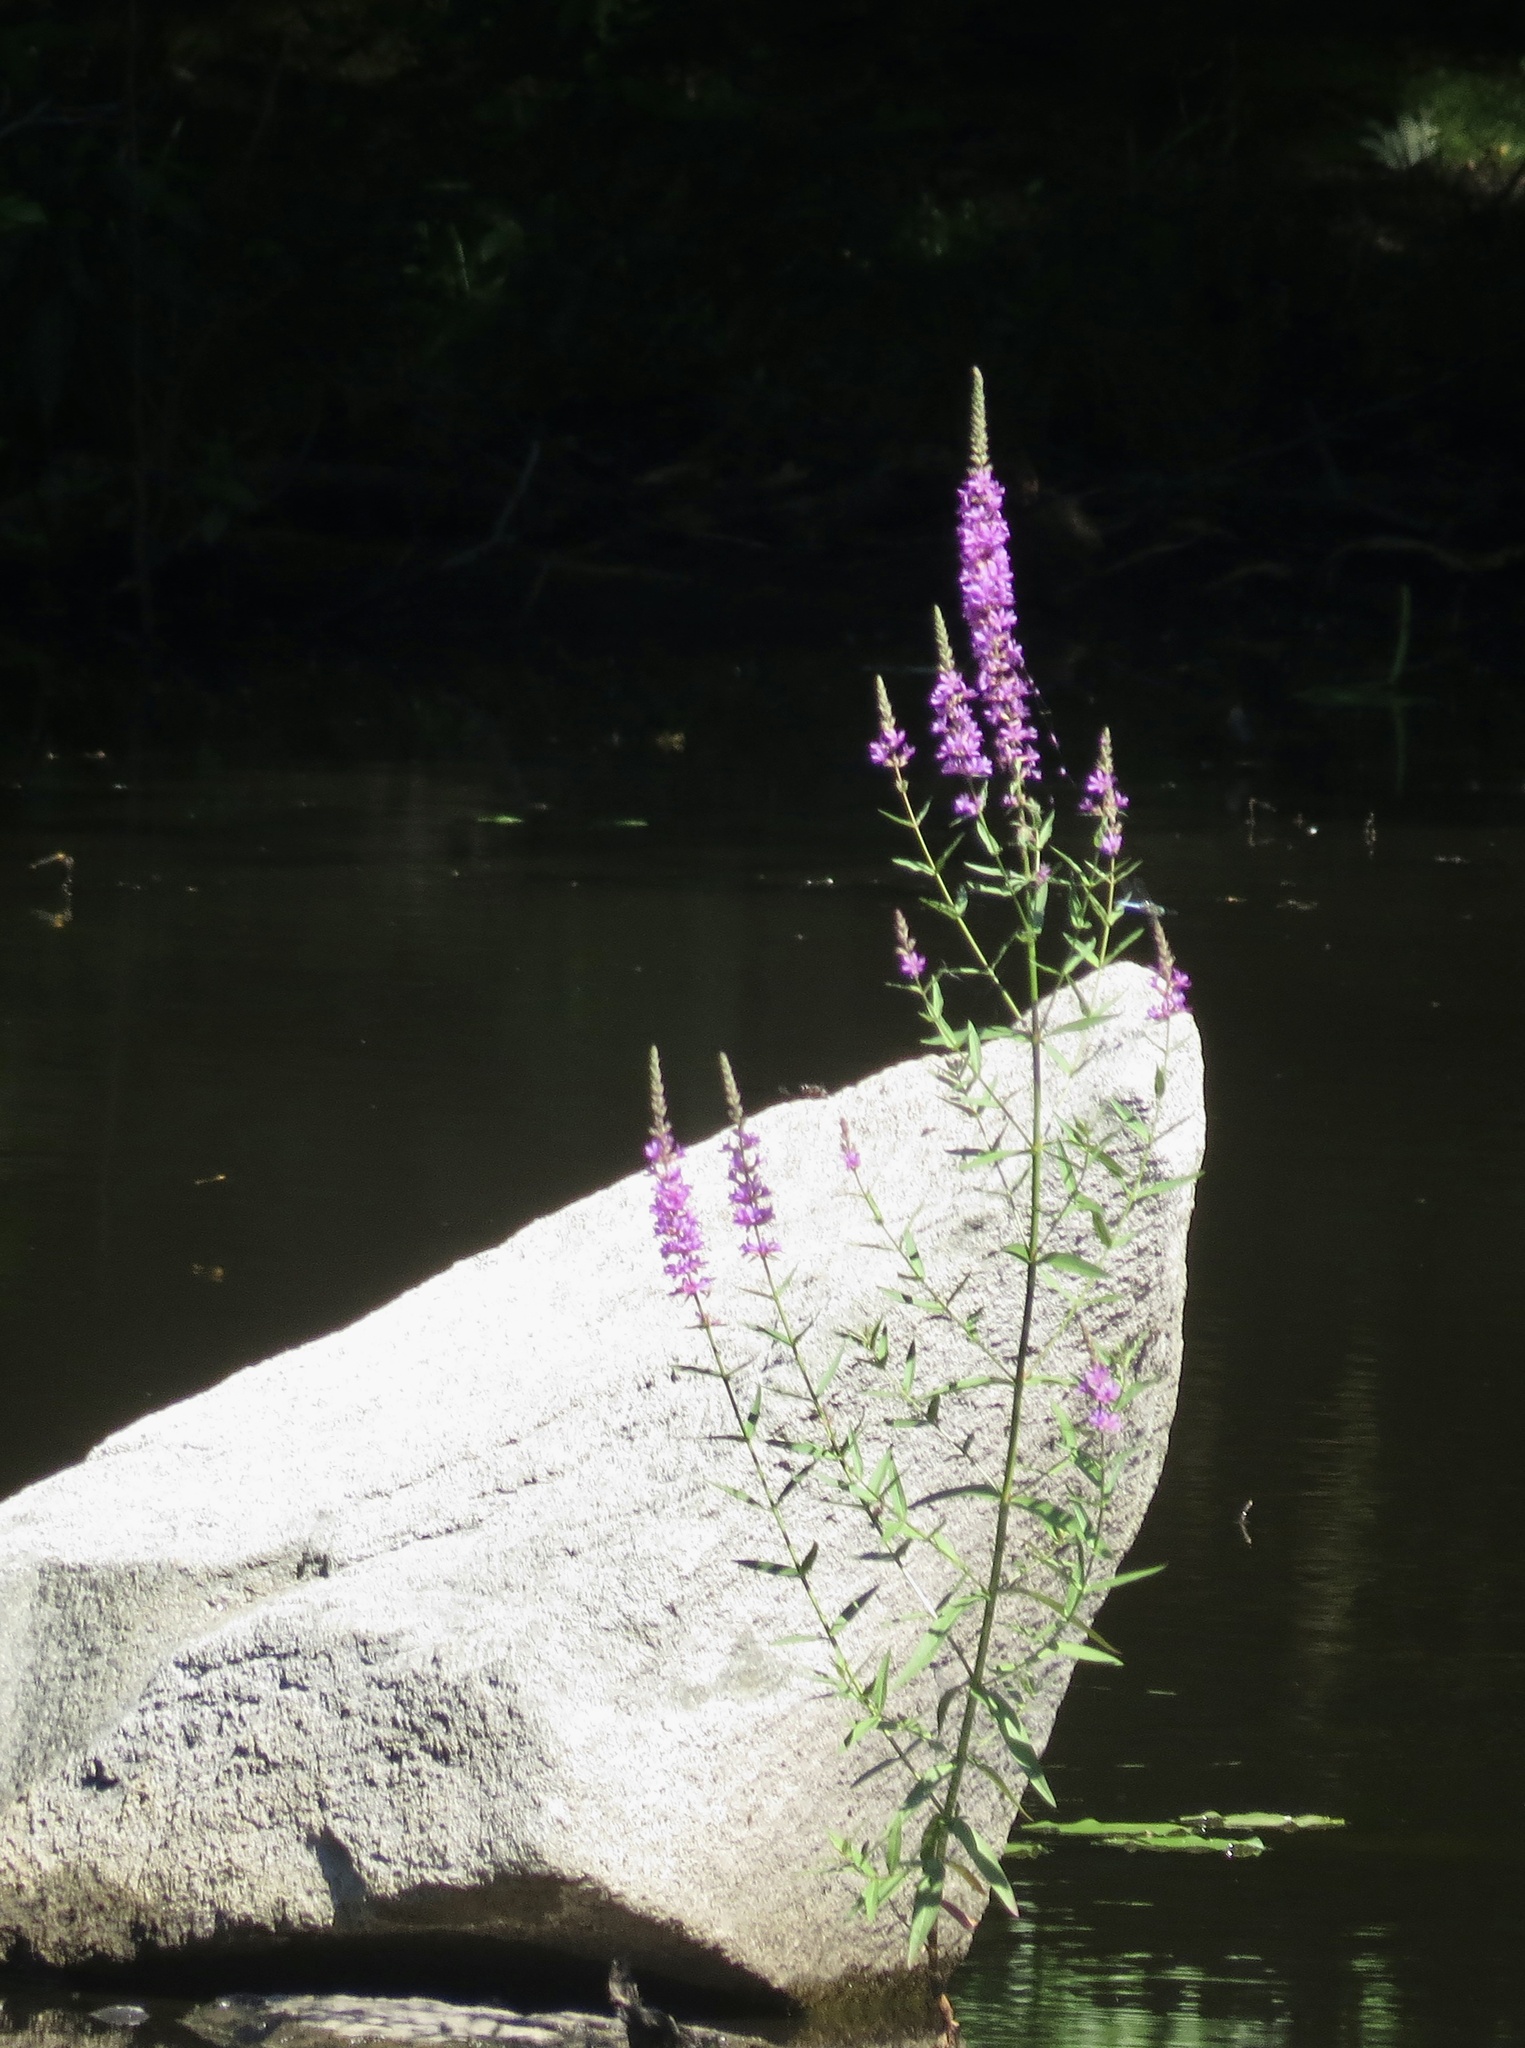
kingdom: Plantae
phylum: Tracheophyta
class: Magnoliopsida
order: Myrtales
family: Lythraceae
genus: Lythrum
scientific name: Lythrum salicaria
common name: Purple loosestrife
